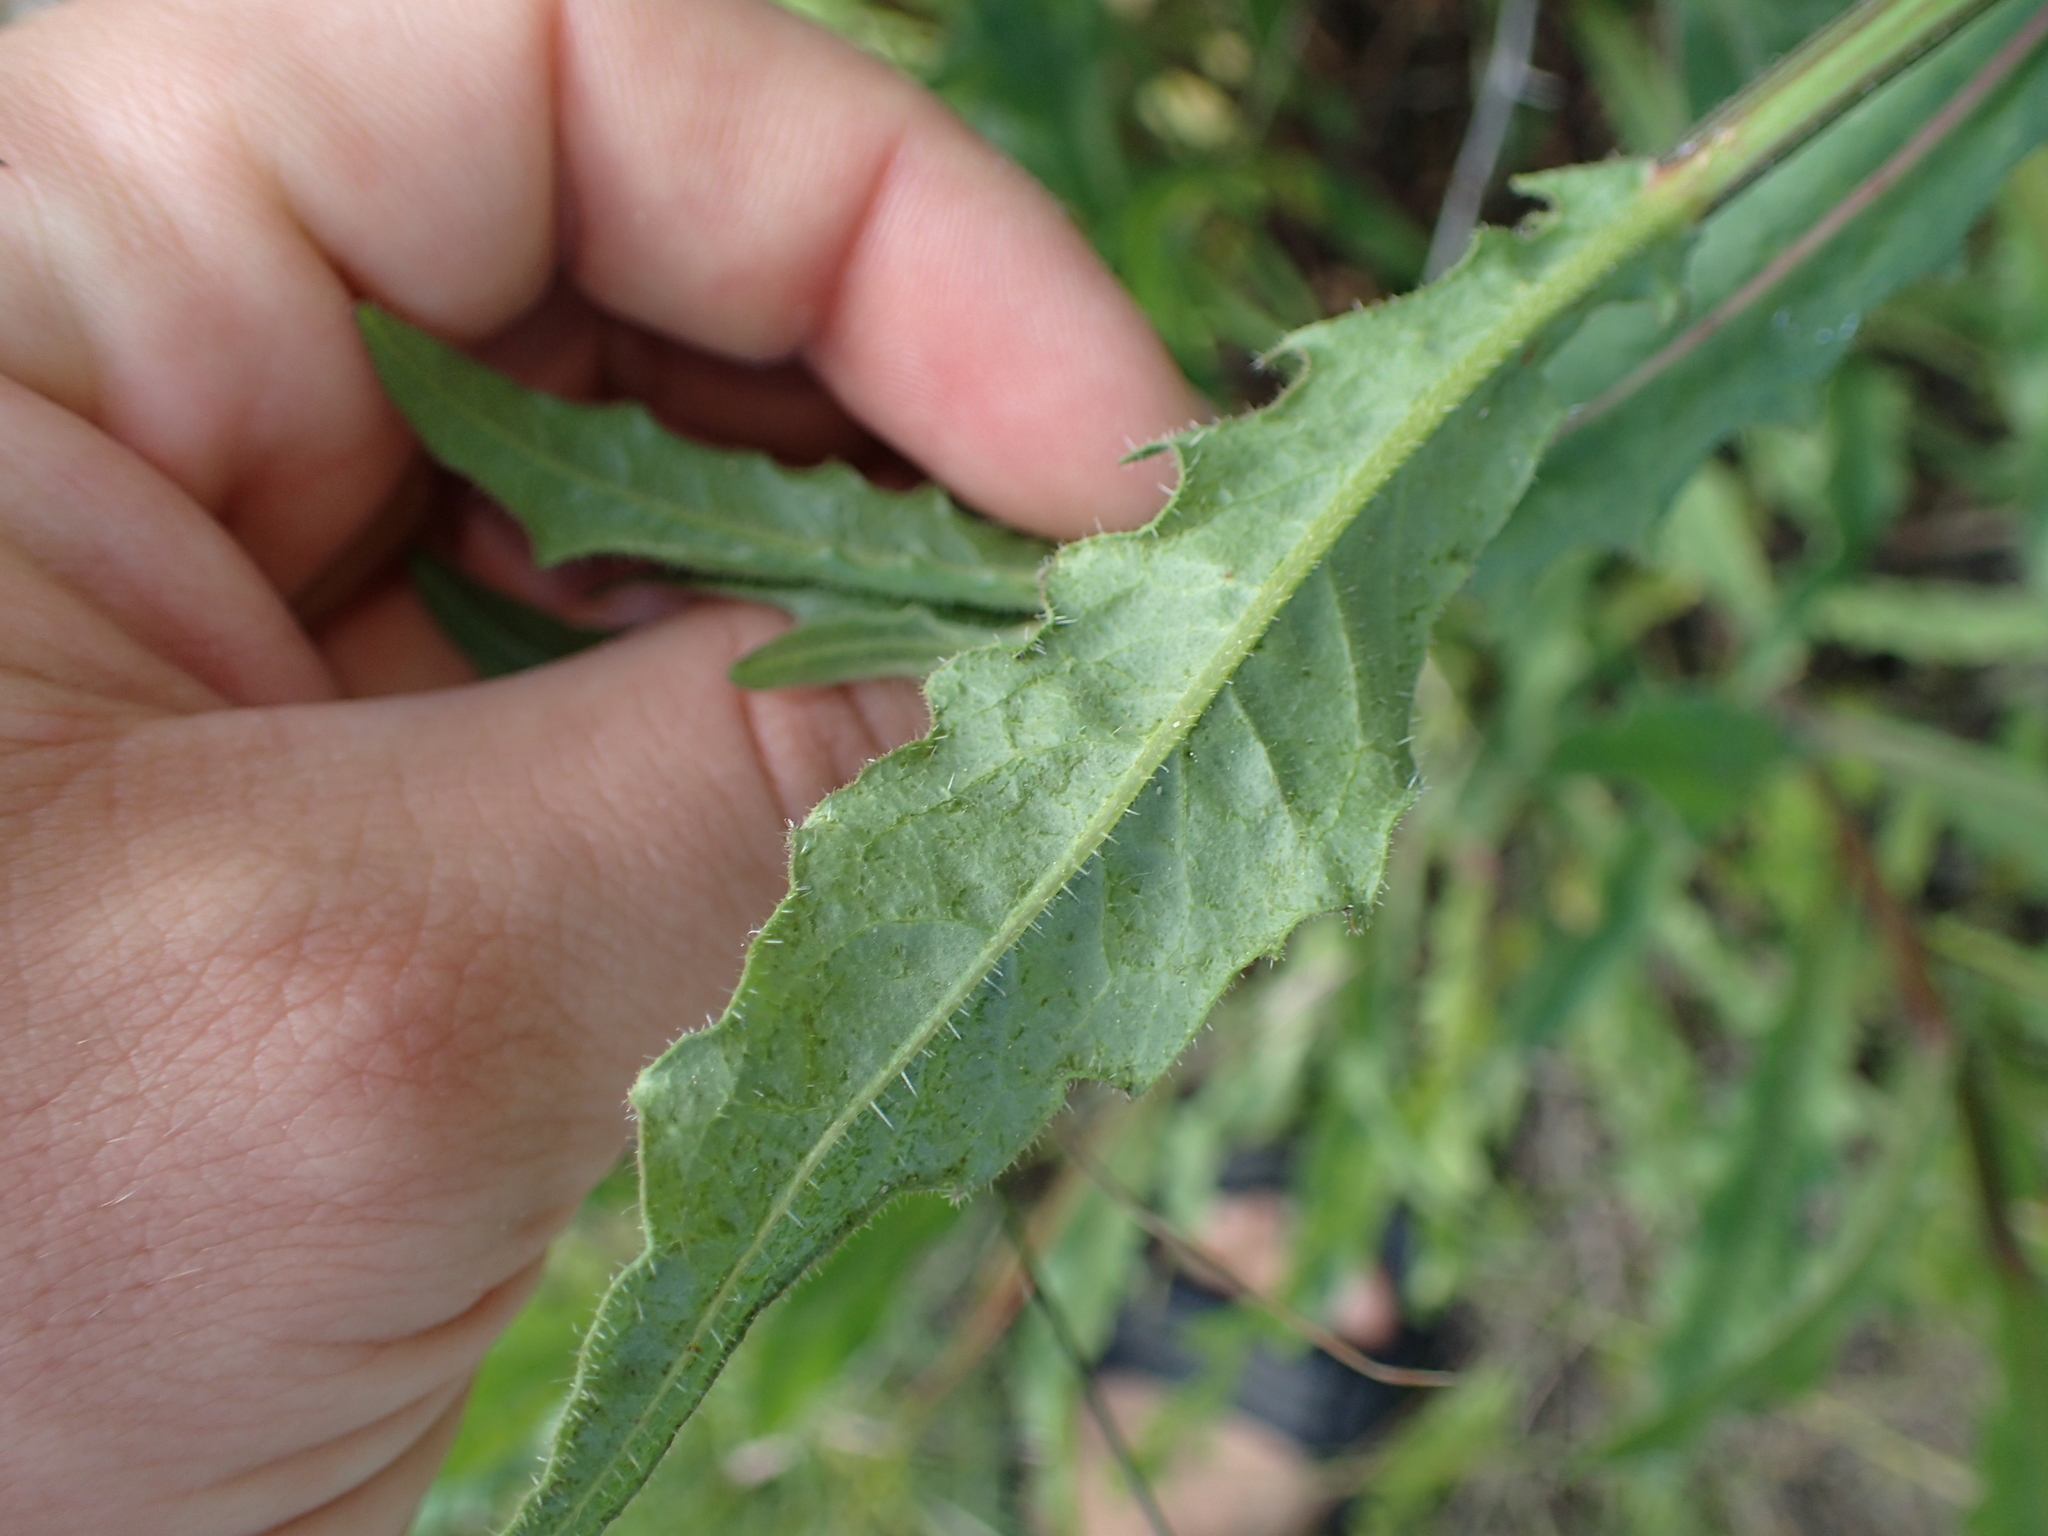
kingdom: Plantae
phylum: Tracheophyta
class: Magnoliopsida
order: Asterales
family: Asteraceae
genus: Cirsium
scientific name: Cirsium arvense
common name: Creeping thistle
